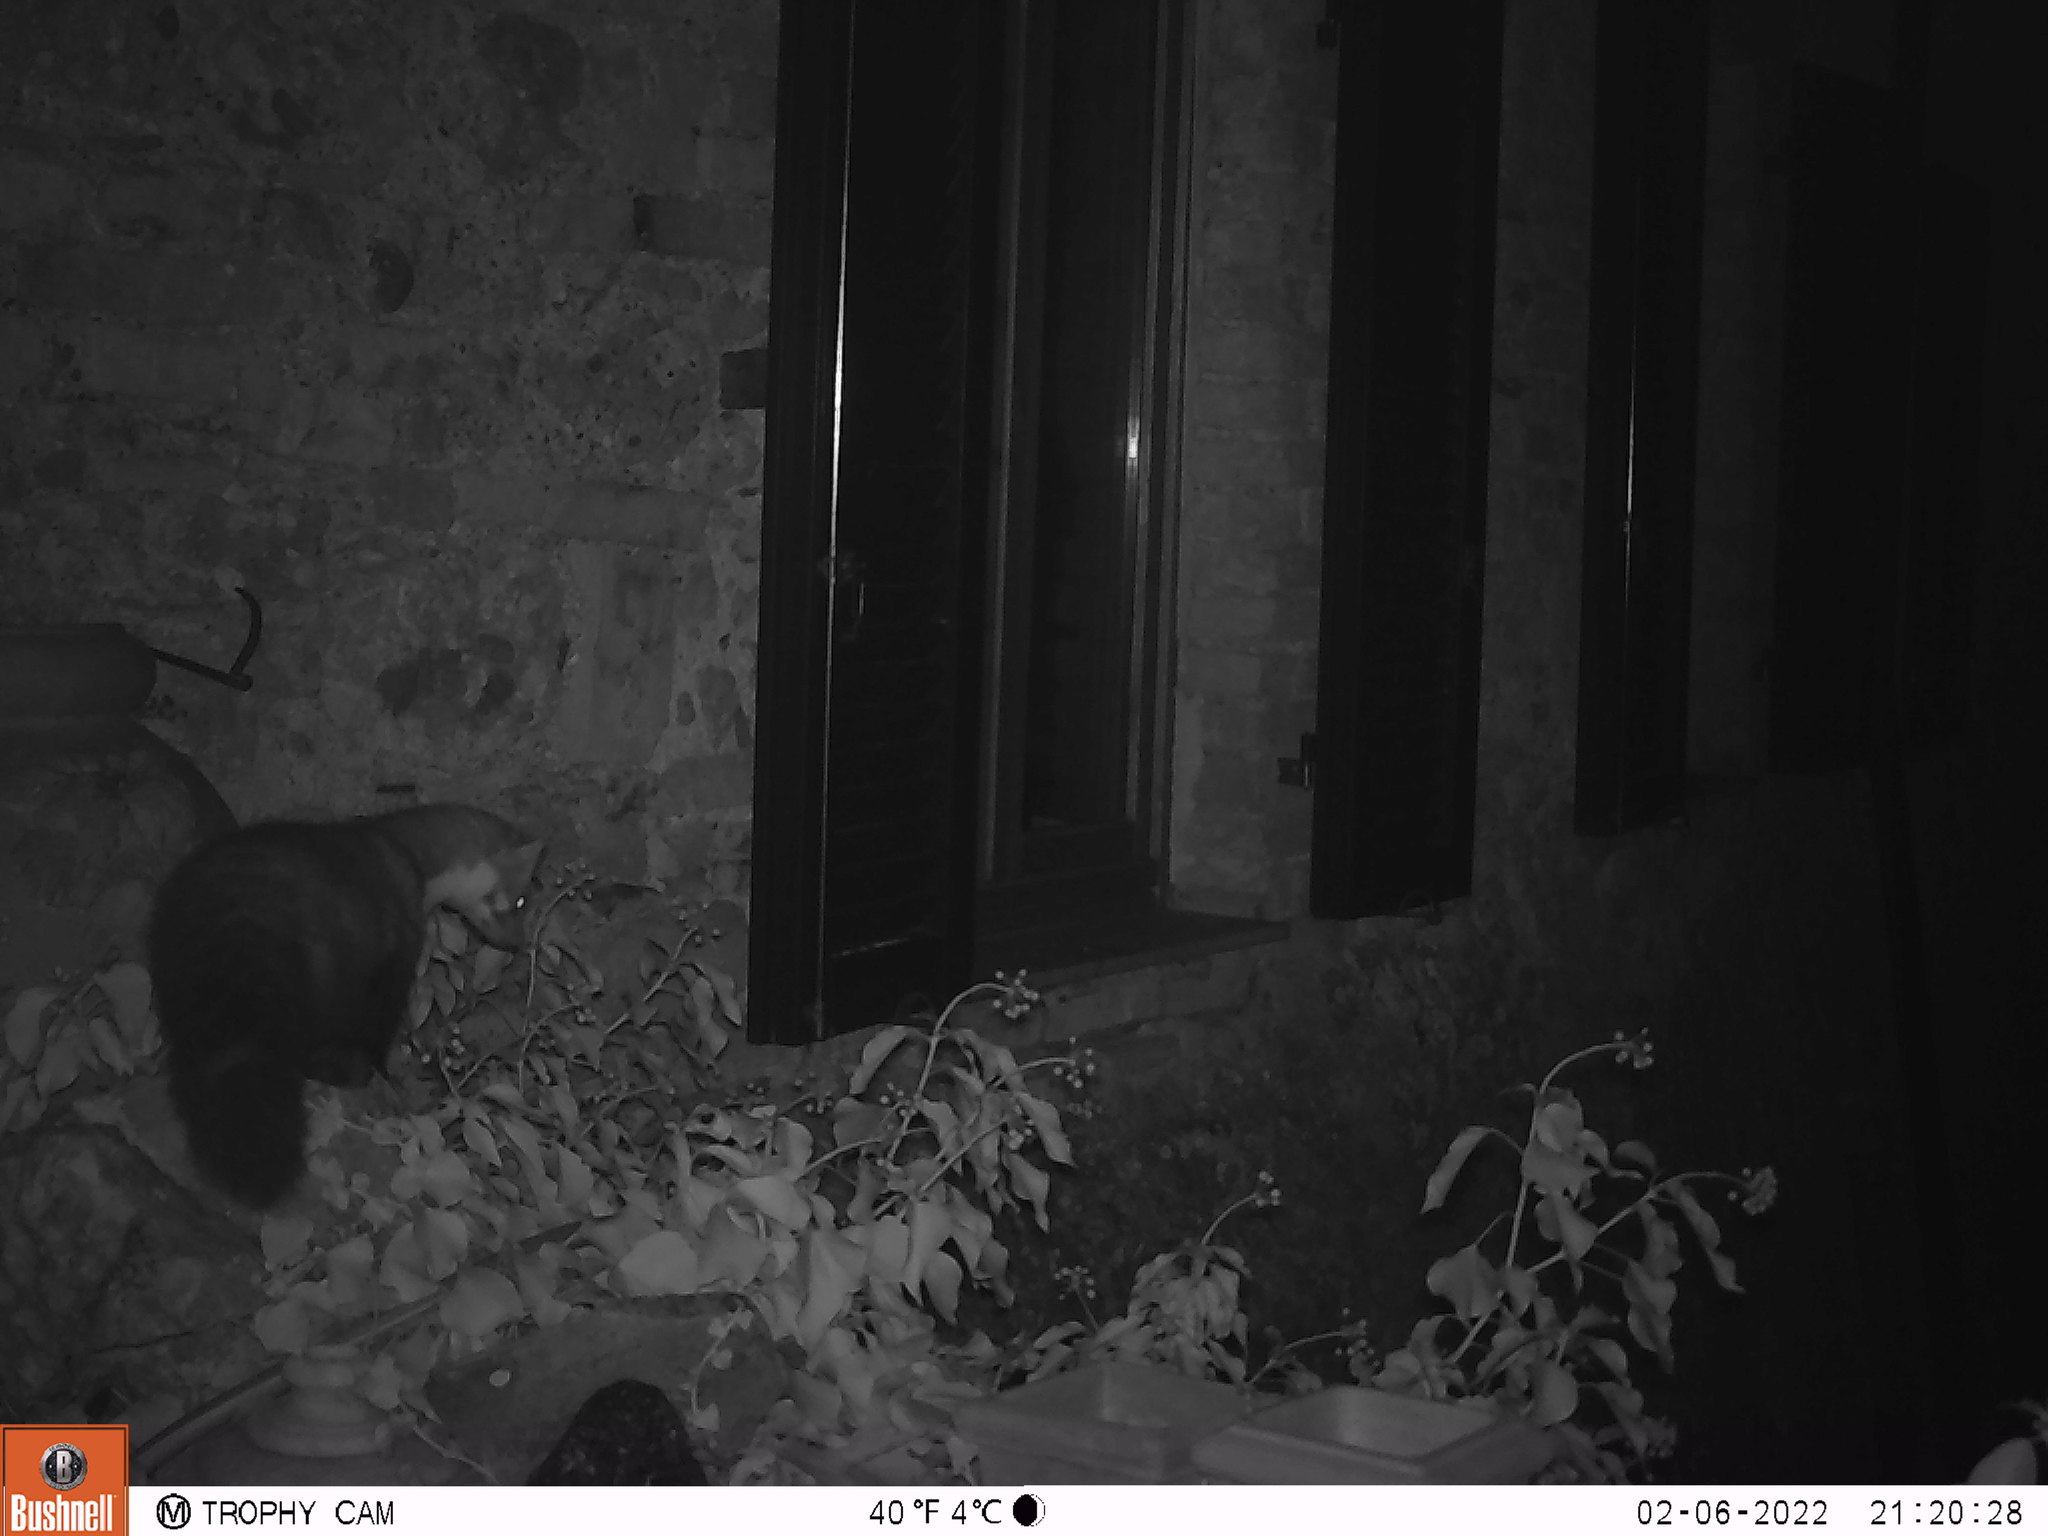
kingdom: Animalia
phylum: Chordata
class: Mammalia
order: Carnivora
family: Mustelidae
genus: Martes
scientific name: Martes foina
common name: Beech marten
